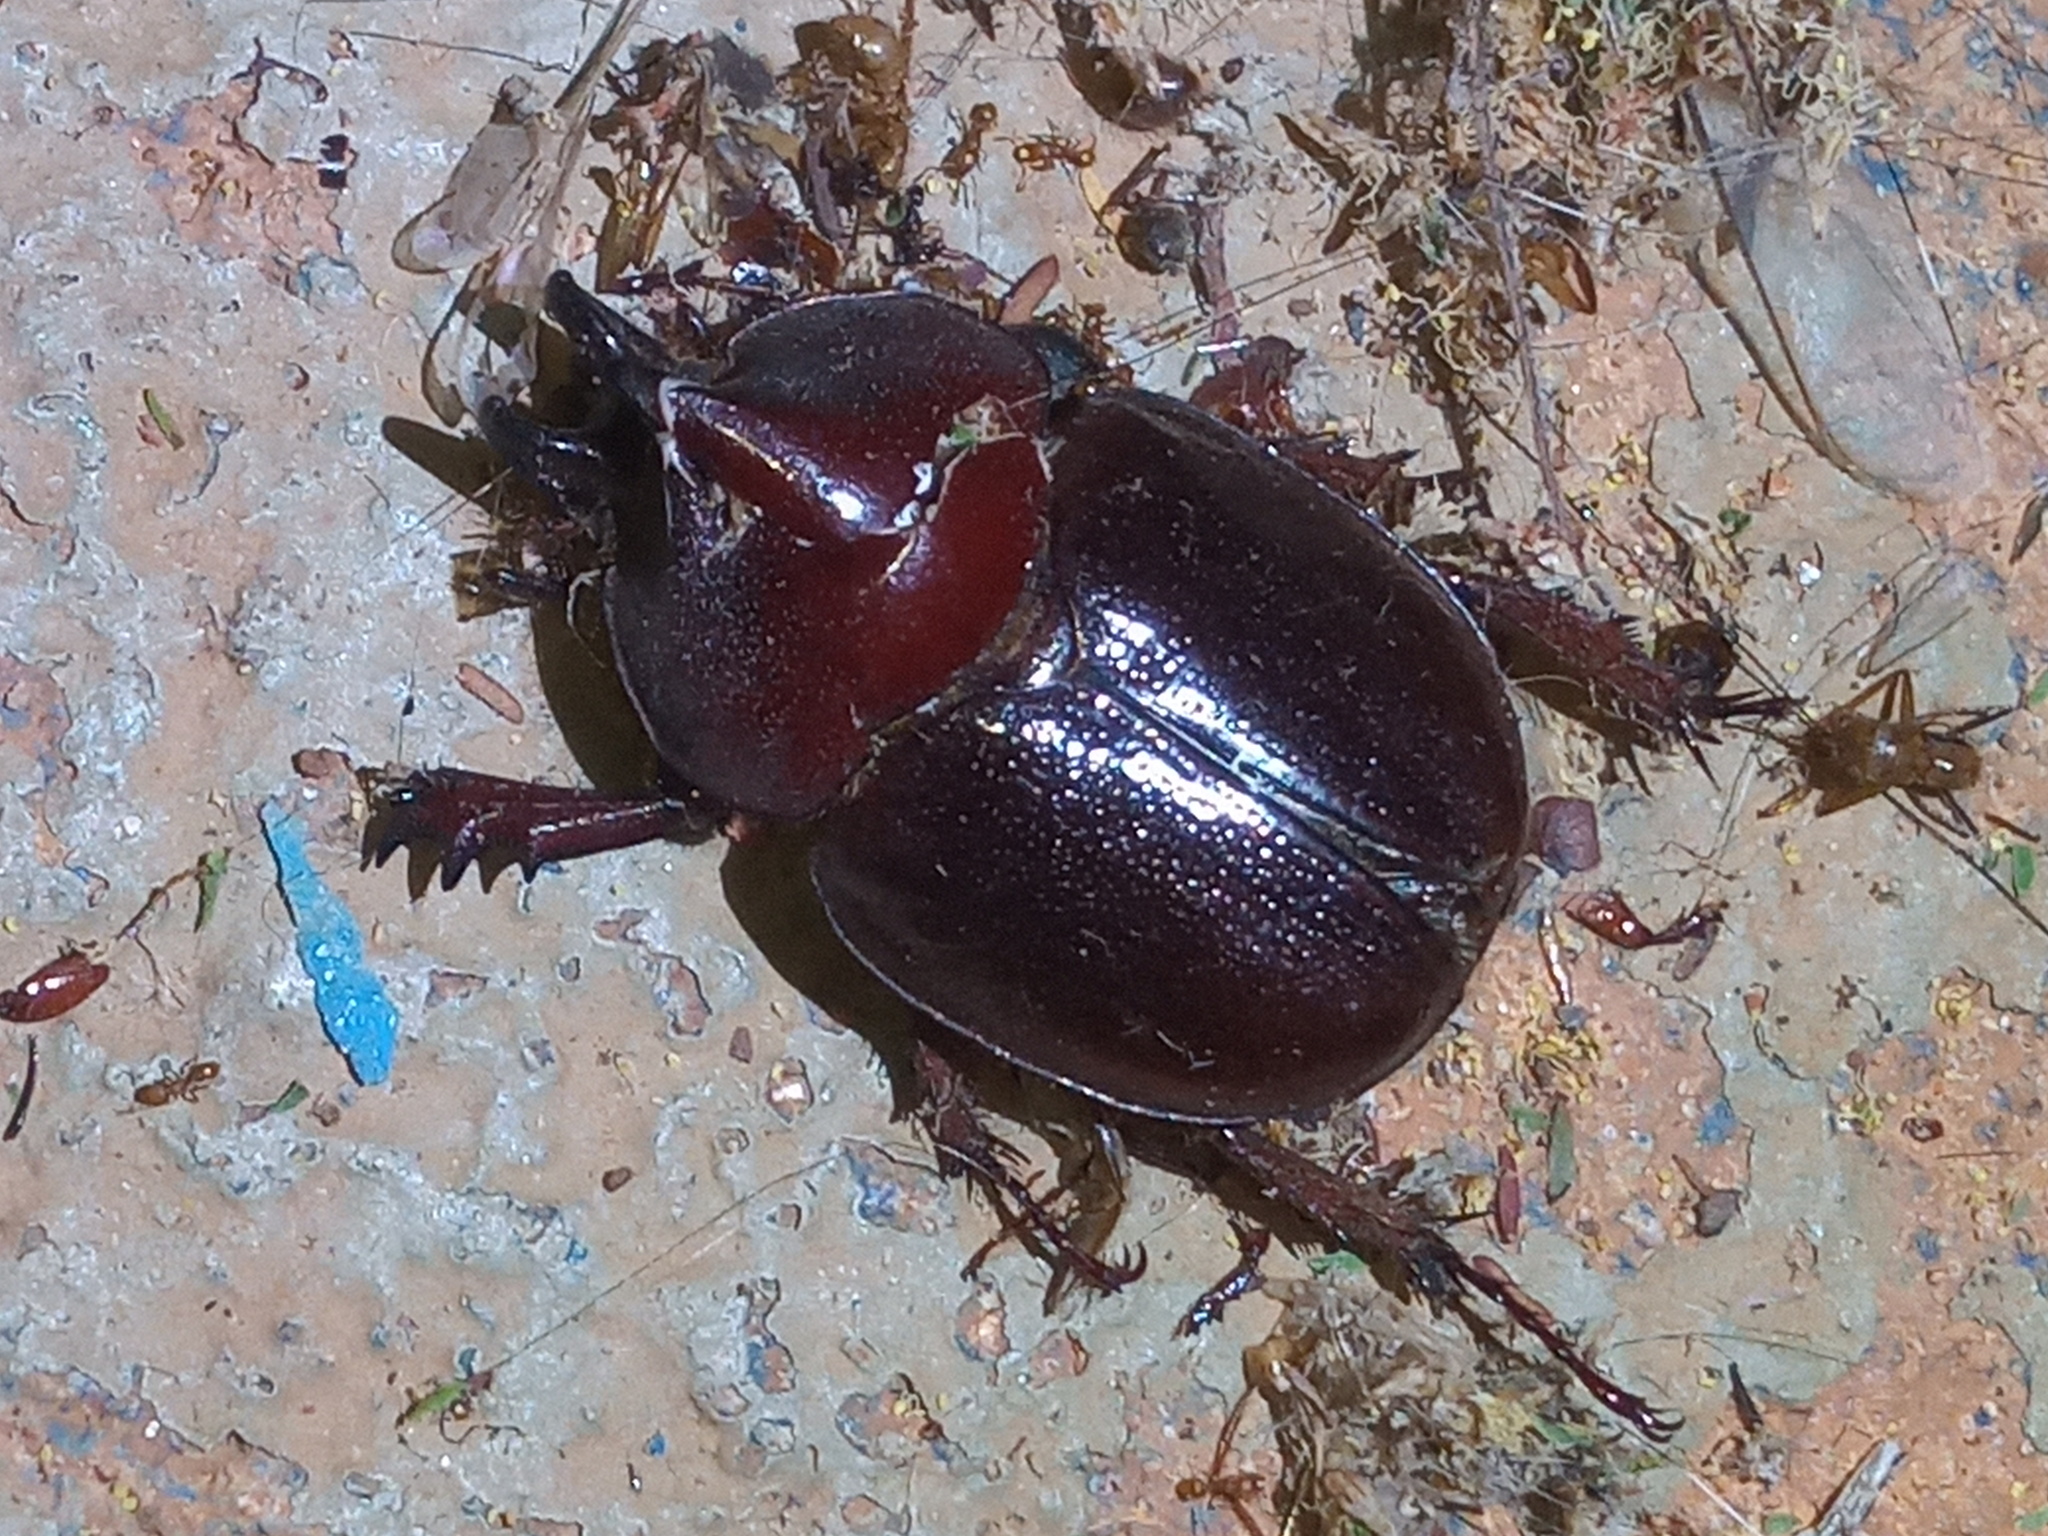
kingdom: Animalia
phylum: Arthropoda
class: Insecta
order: Coleoptera
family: Scarabaeidae
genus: Aegopsis
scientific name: Aegopsis bolboceridus
